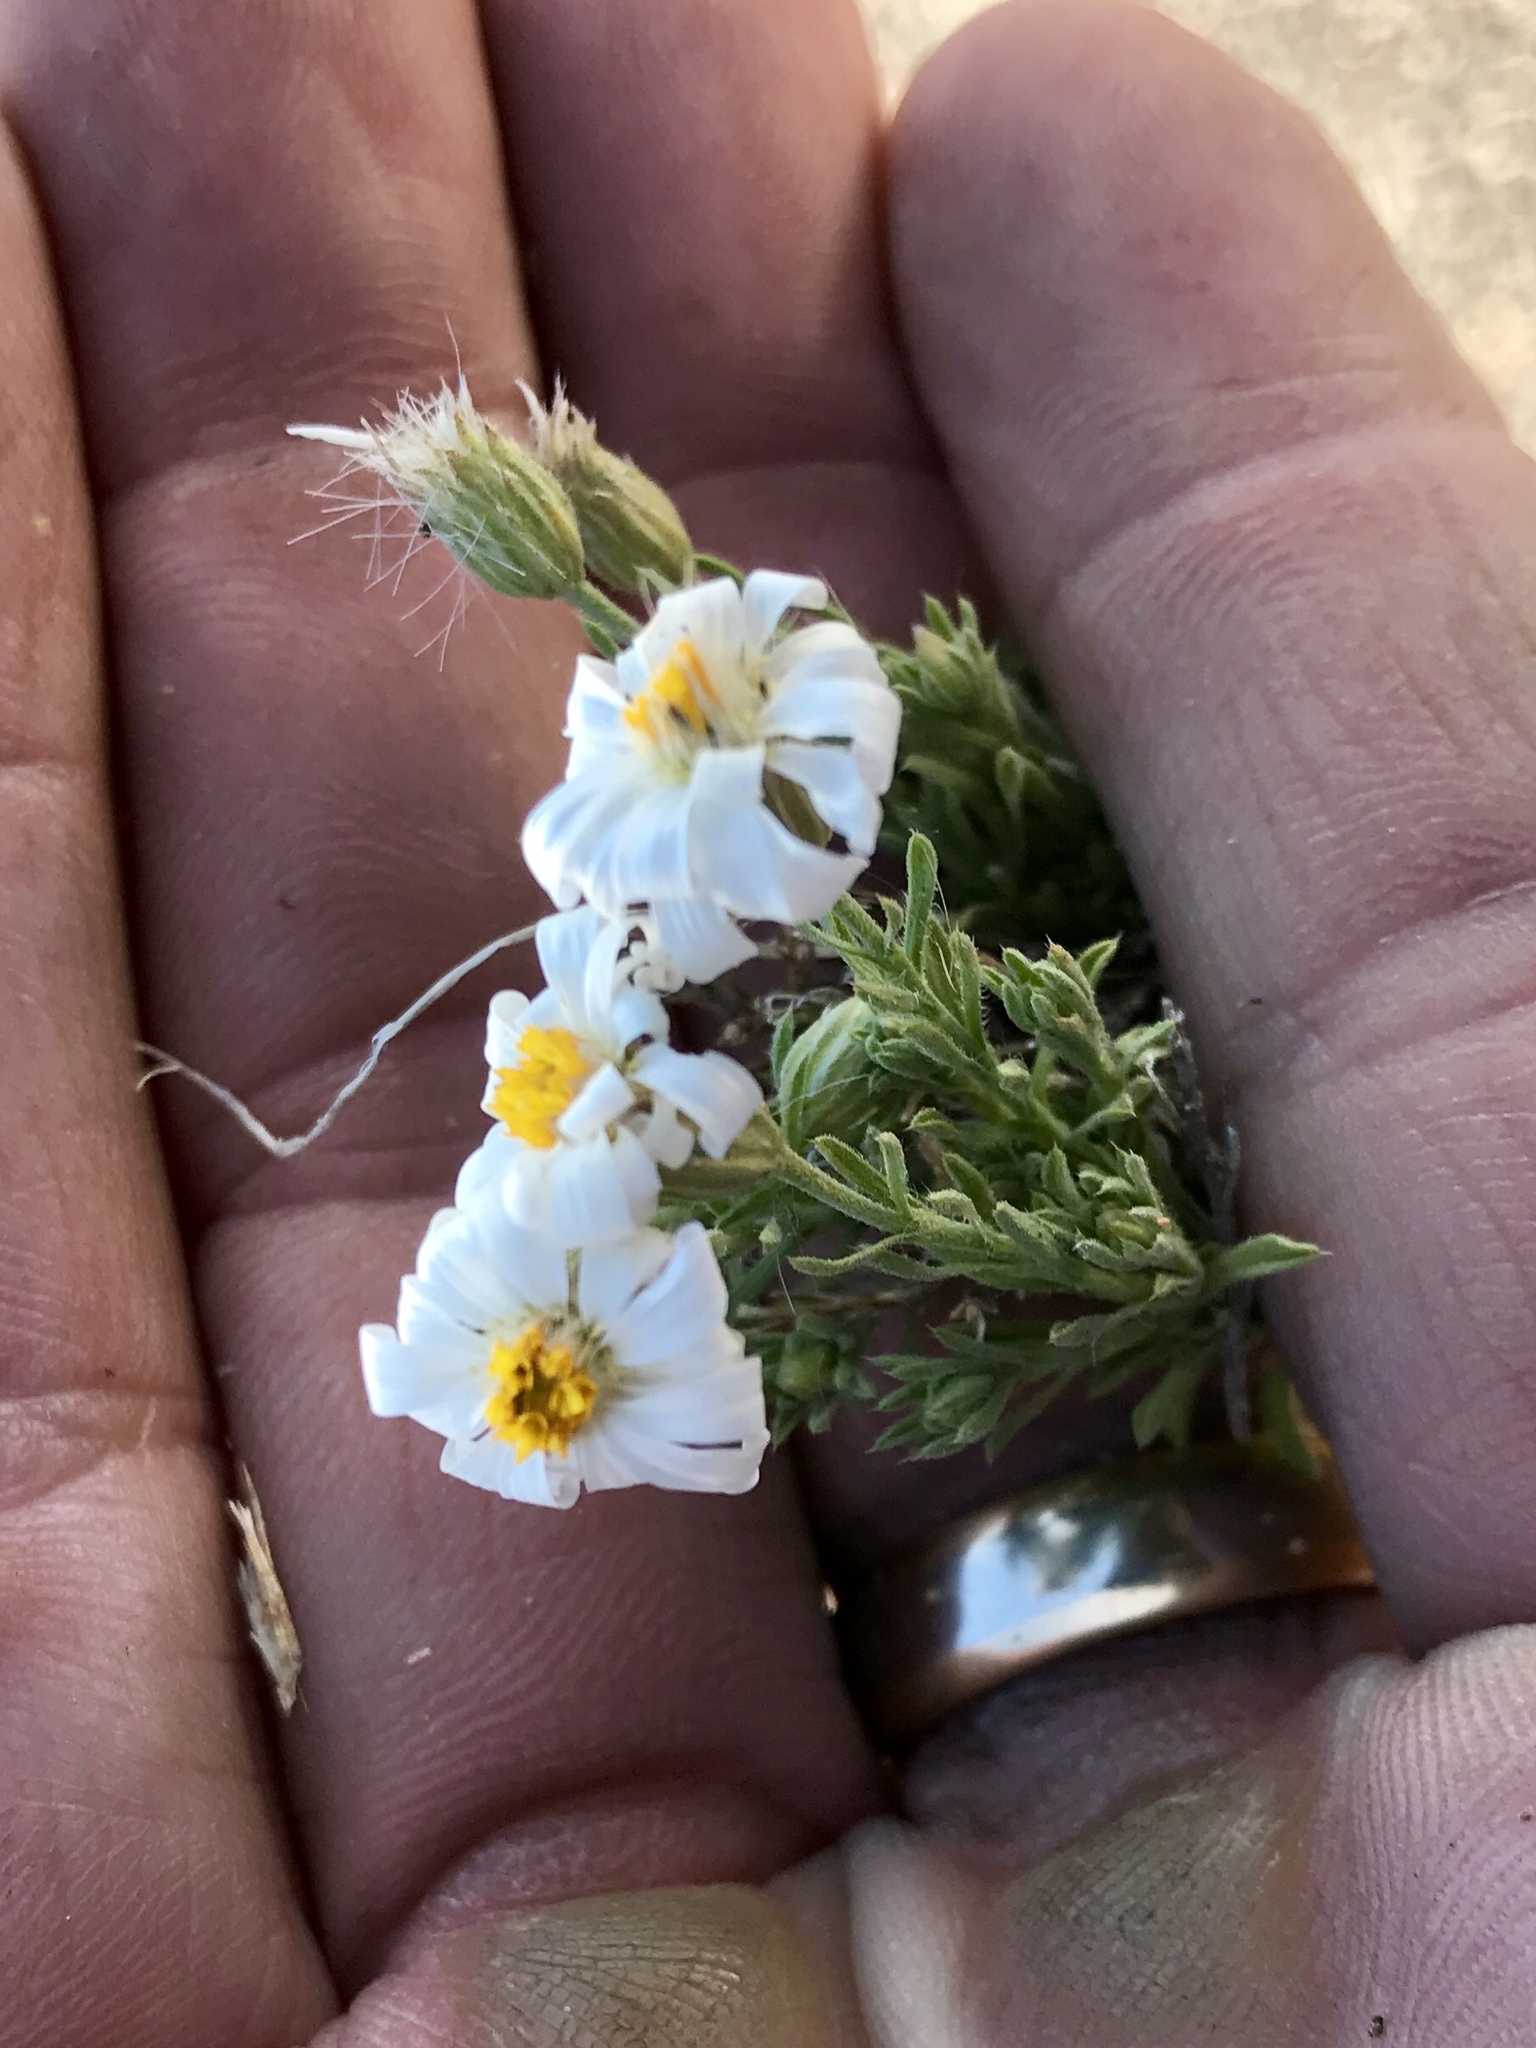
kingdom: Plantae
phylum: Tracheophyta
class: Magnoliopsida
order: Asterales
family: Asteraceae
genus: Chaetopappa
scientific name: Chaetopappa ericoides
